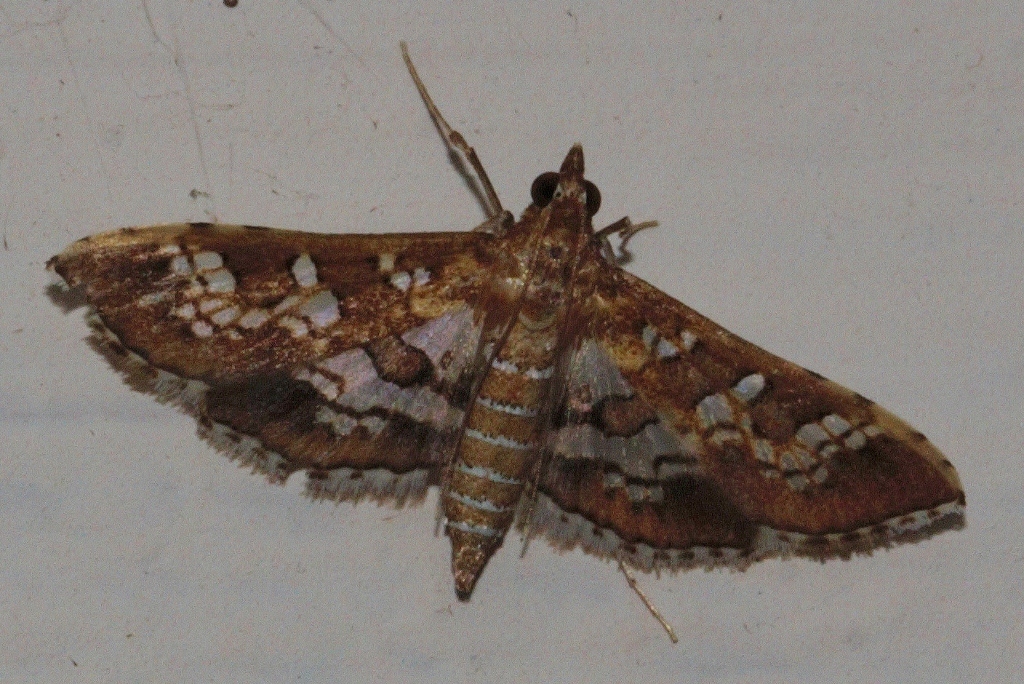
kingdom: Animalia
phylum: Arthropoda
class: Insecta
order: Lepidoptera
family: Crambidae
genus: Sameodes
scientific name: Sameodes cancellalis
